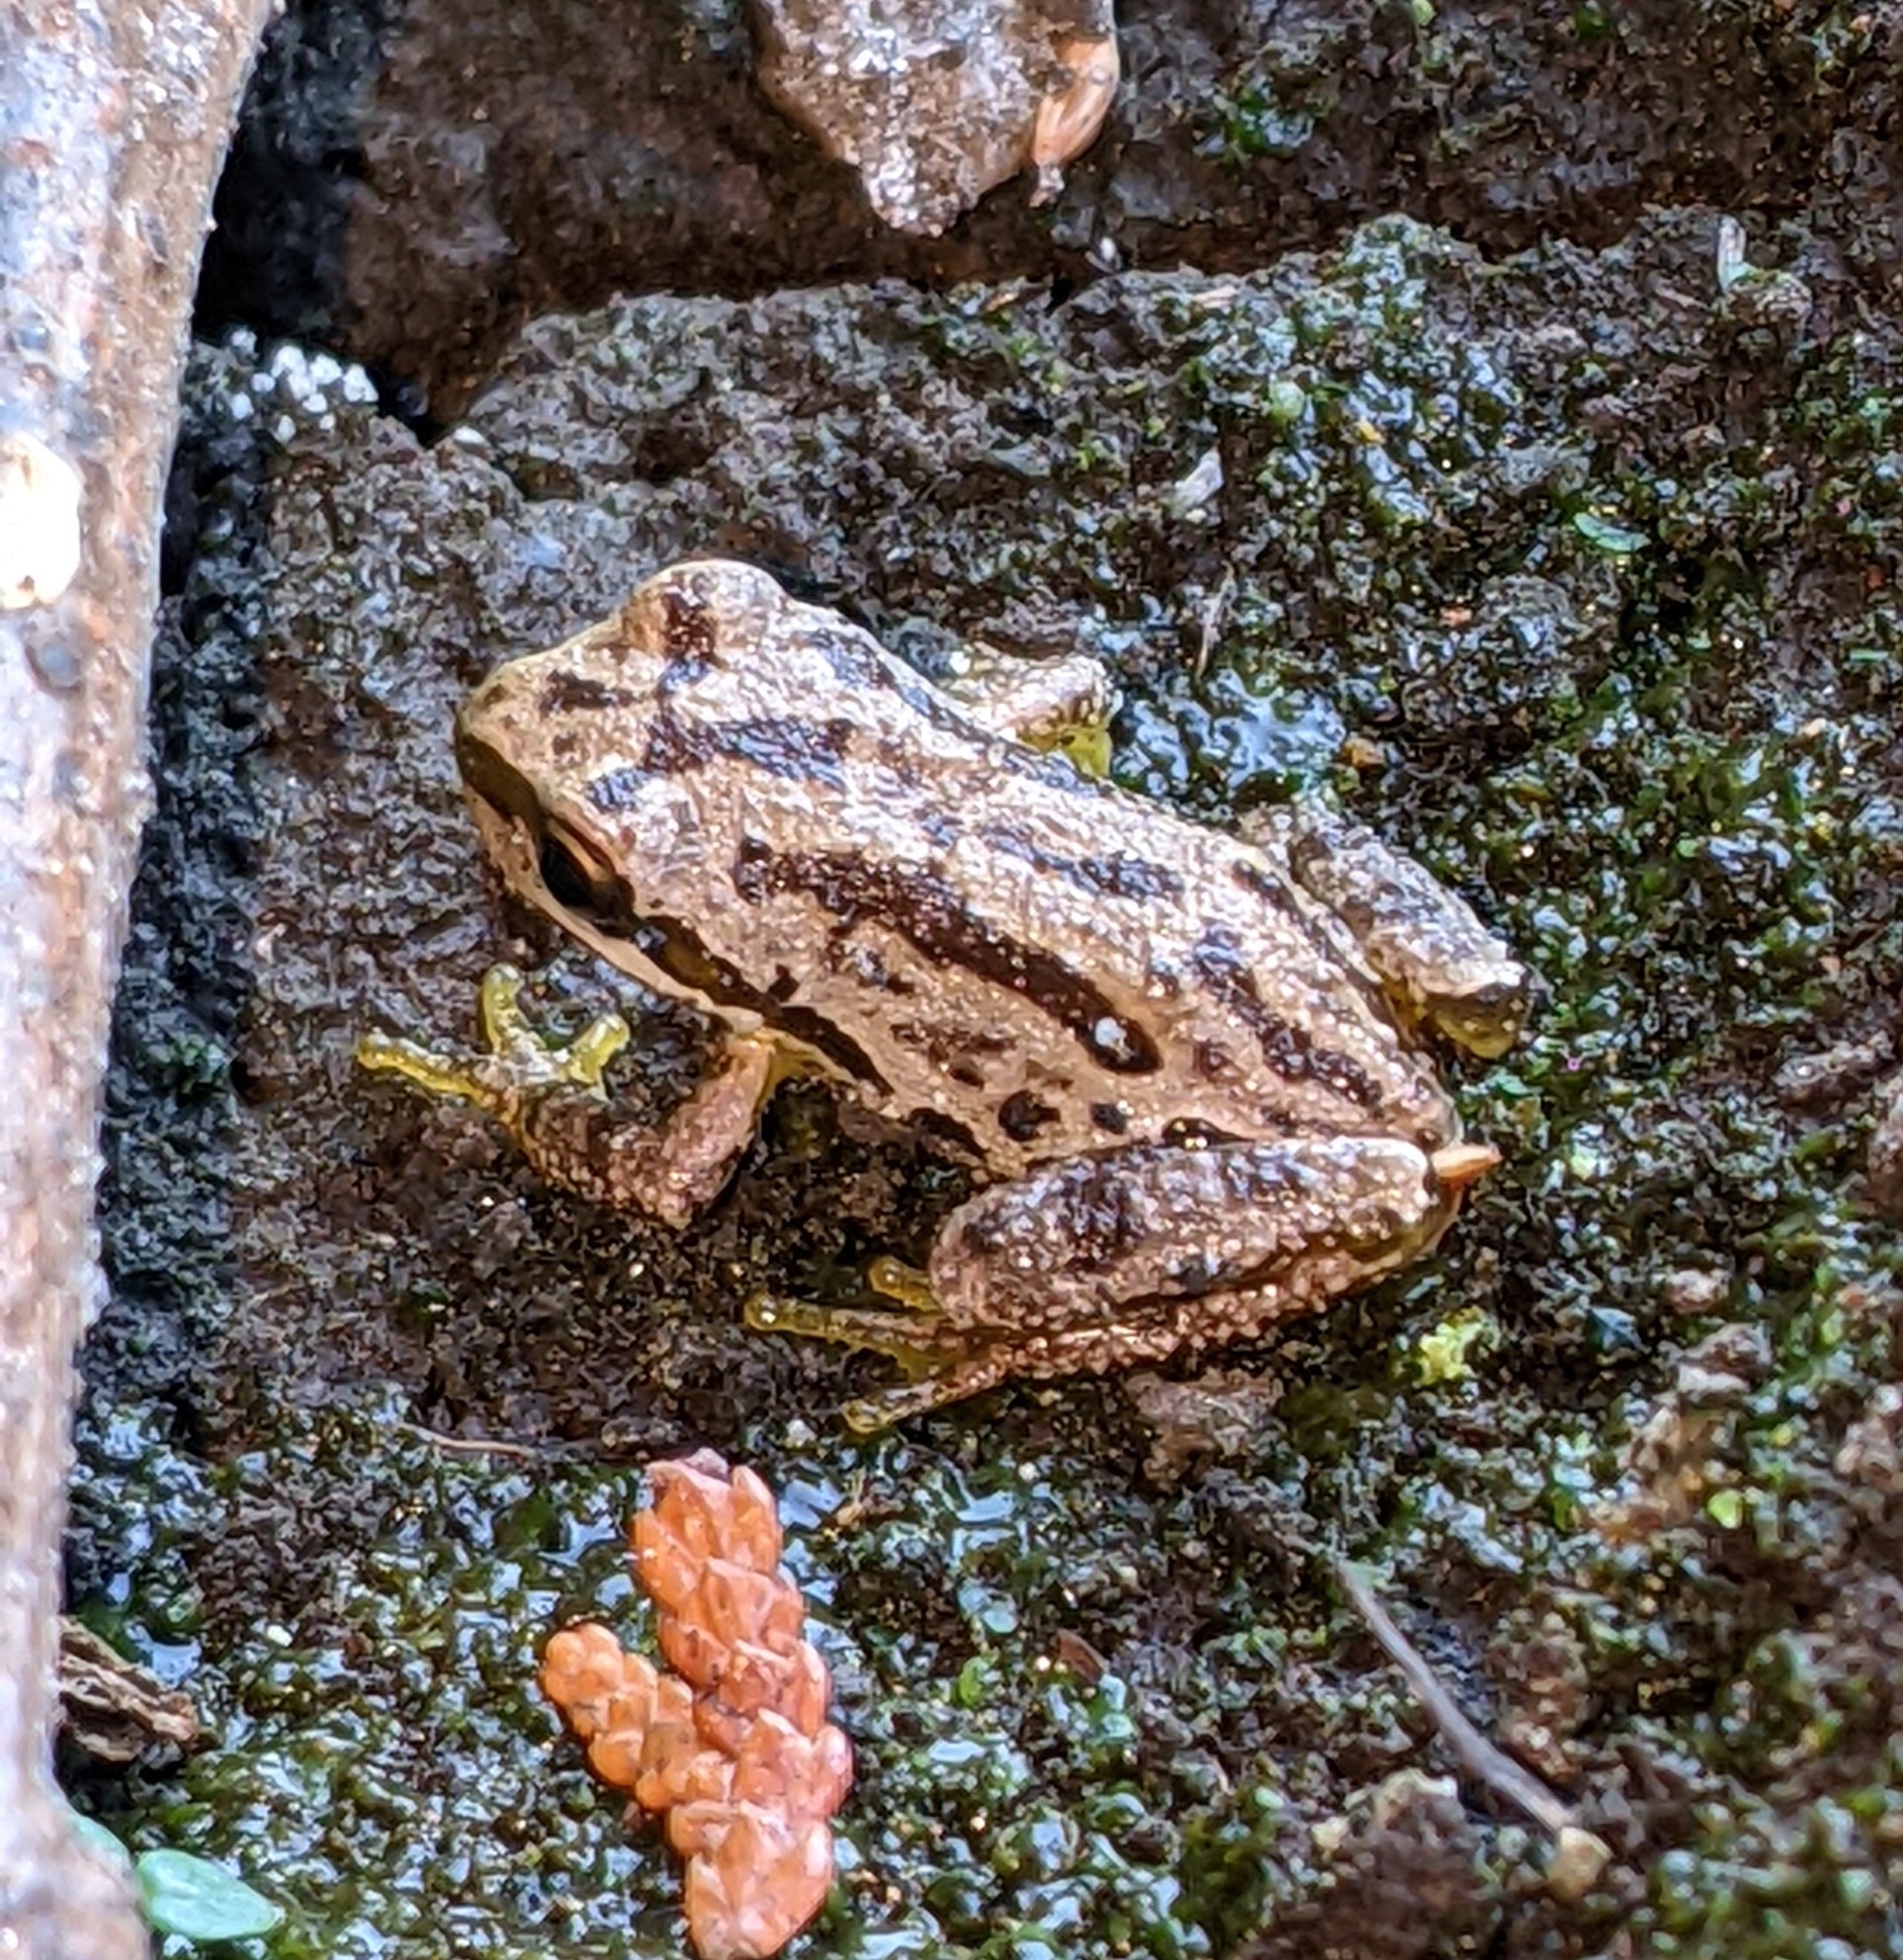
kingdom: Animalia
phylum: Chordata
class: Amphibia
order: Anura
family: Hylidae
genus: Pseudacris
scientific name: Pseudacris regilla
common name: Pacific chorus frog
